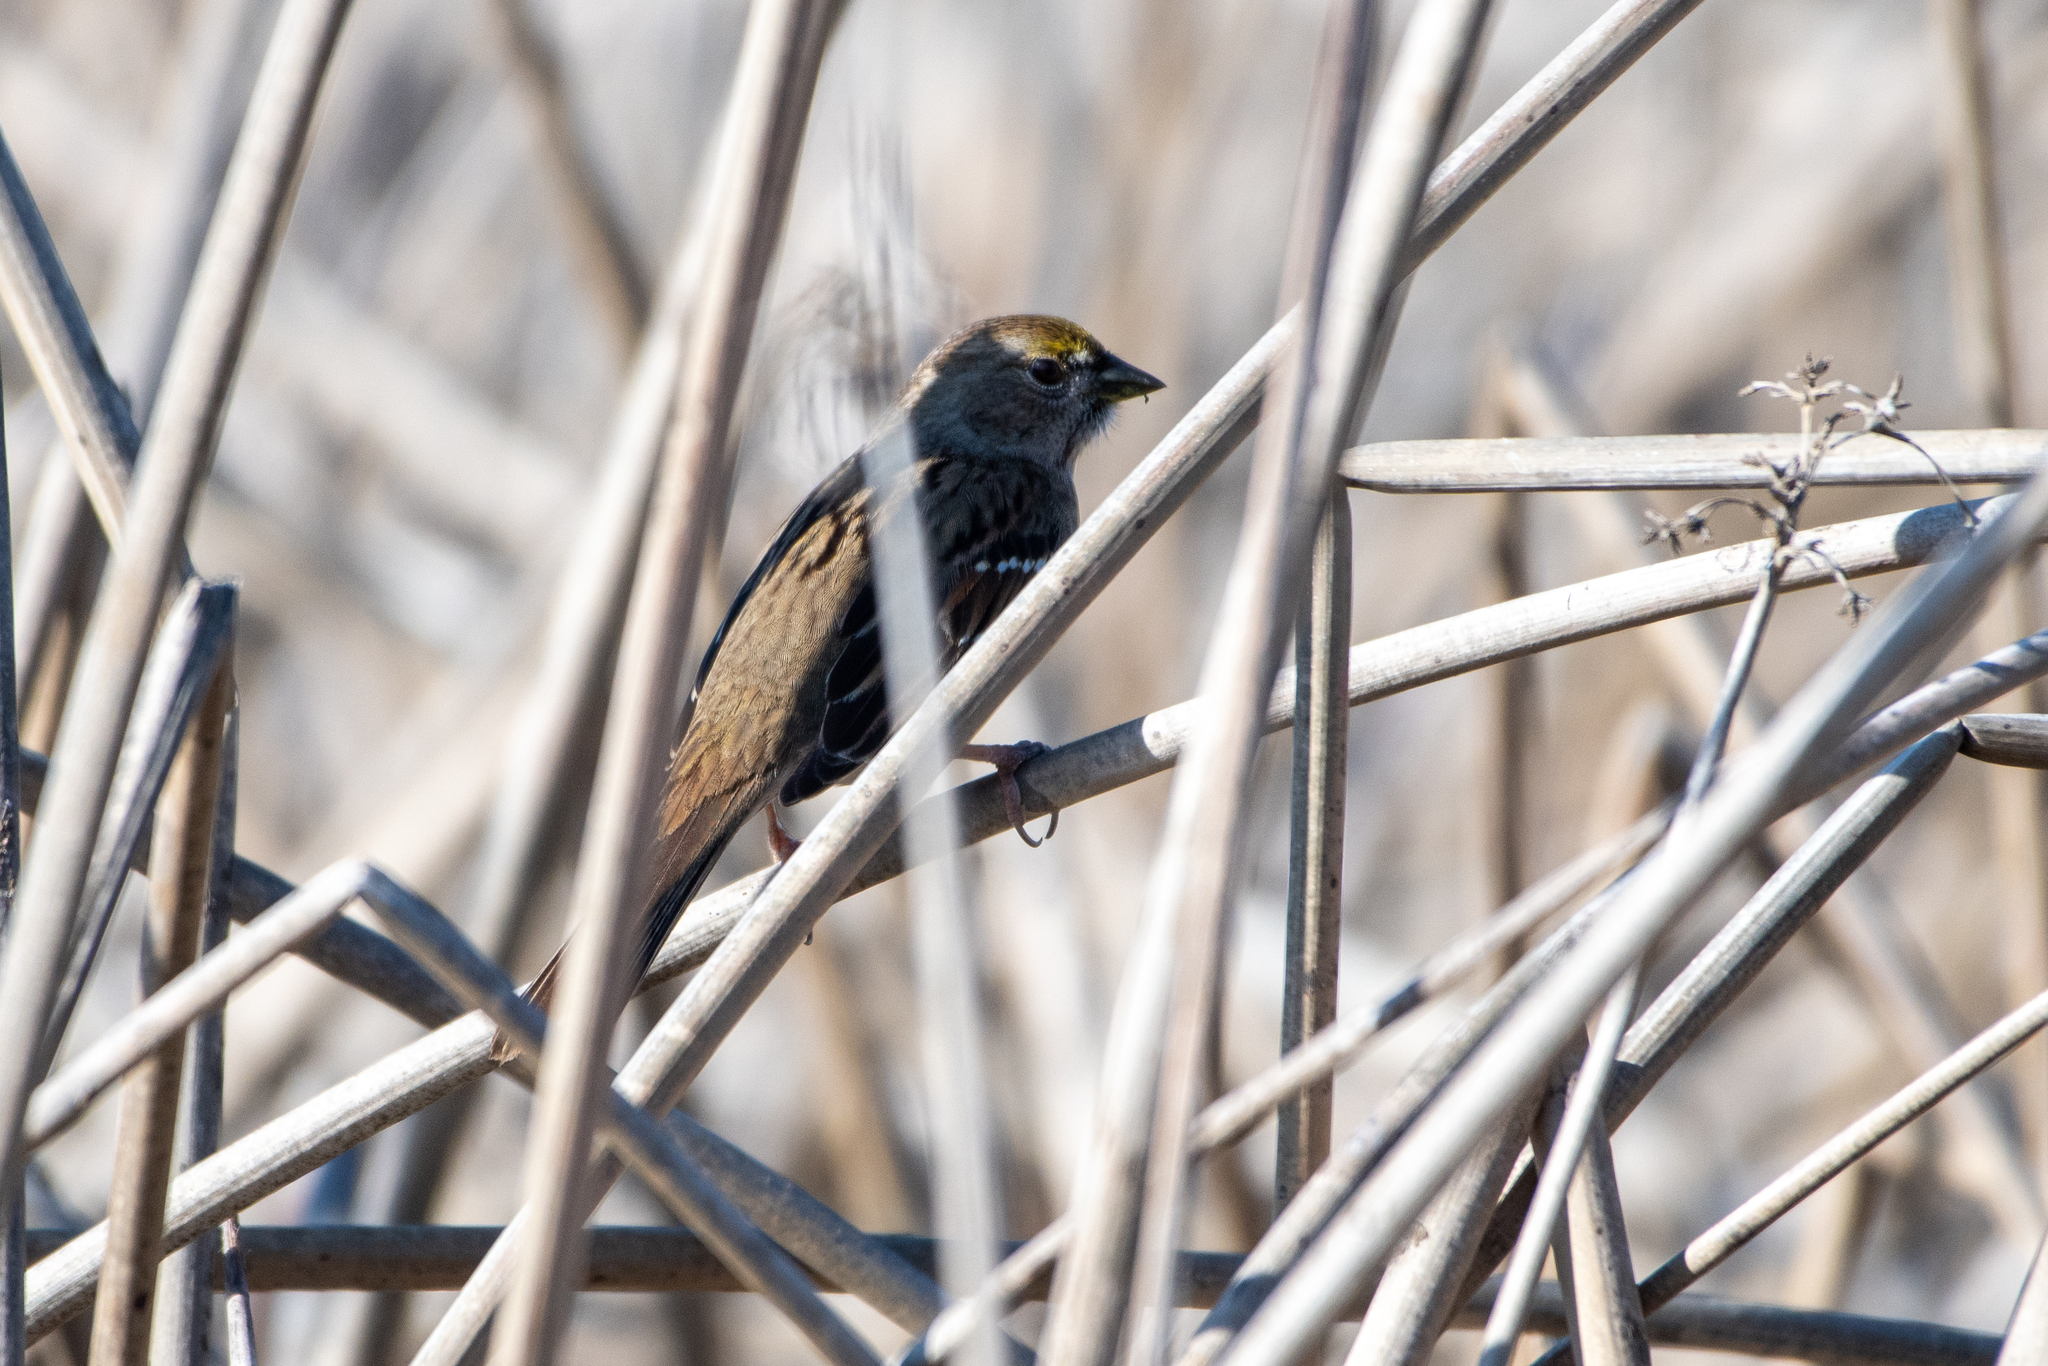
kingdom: Animalia
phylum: Chordata
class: Aves
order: Passeriformes
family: Passerellidae
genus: Zonotrichia
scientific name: Zonotrichia atricapilla
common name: Golden-crowned sparrow
